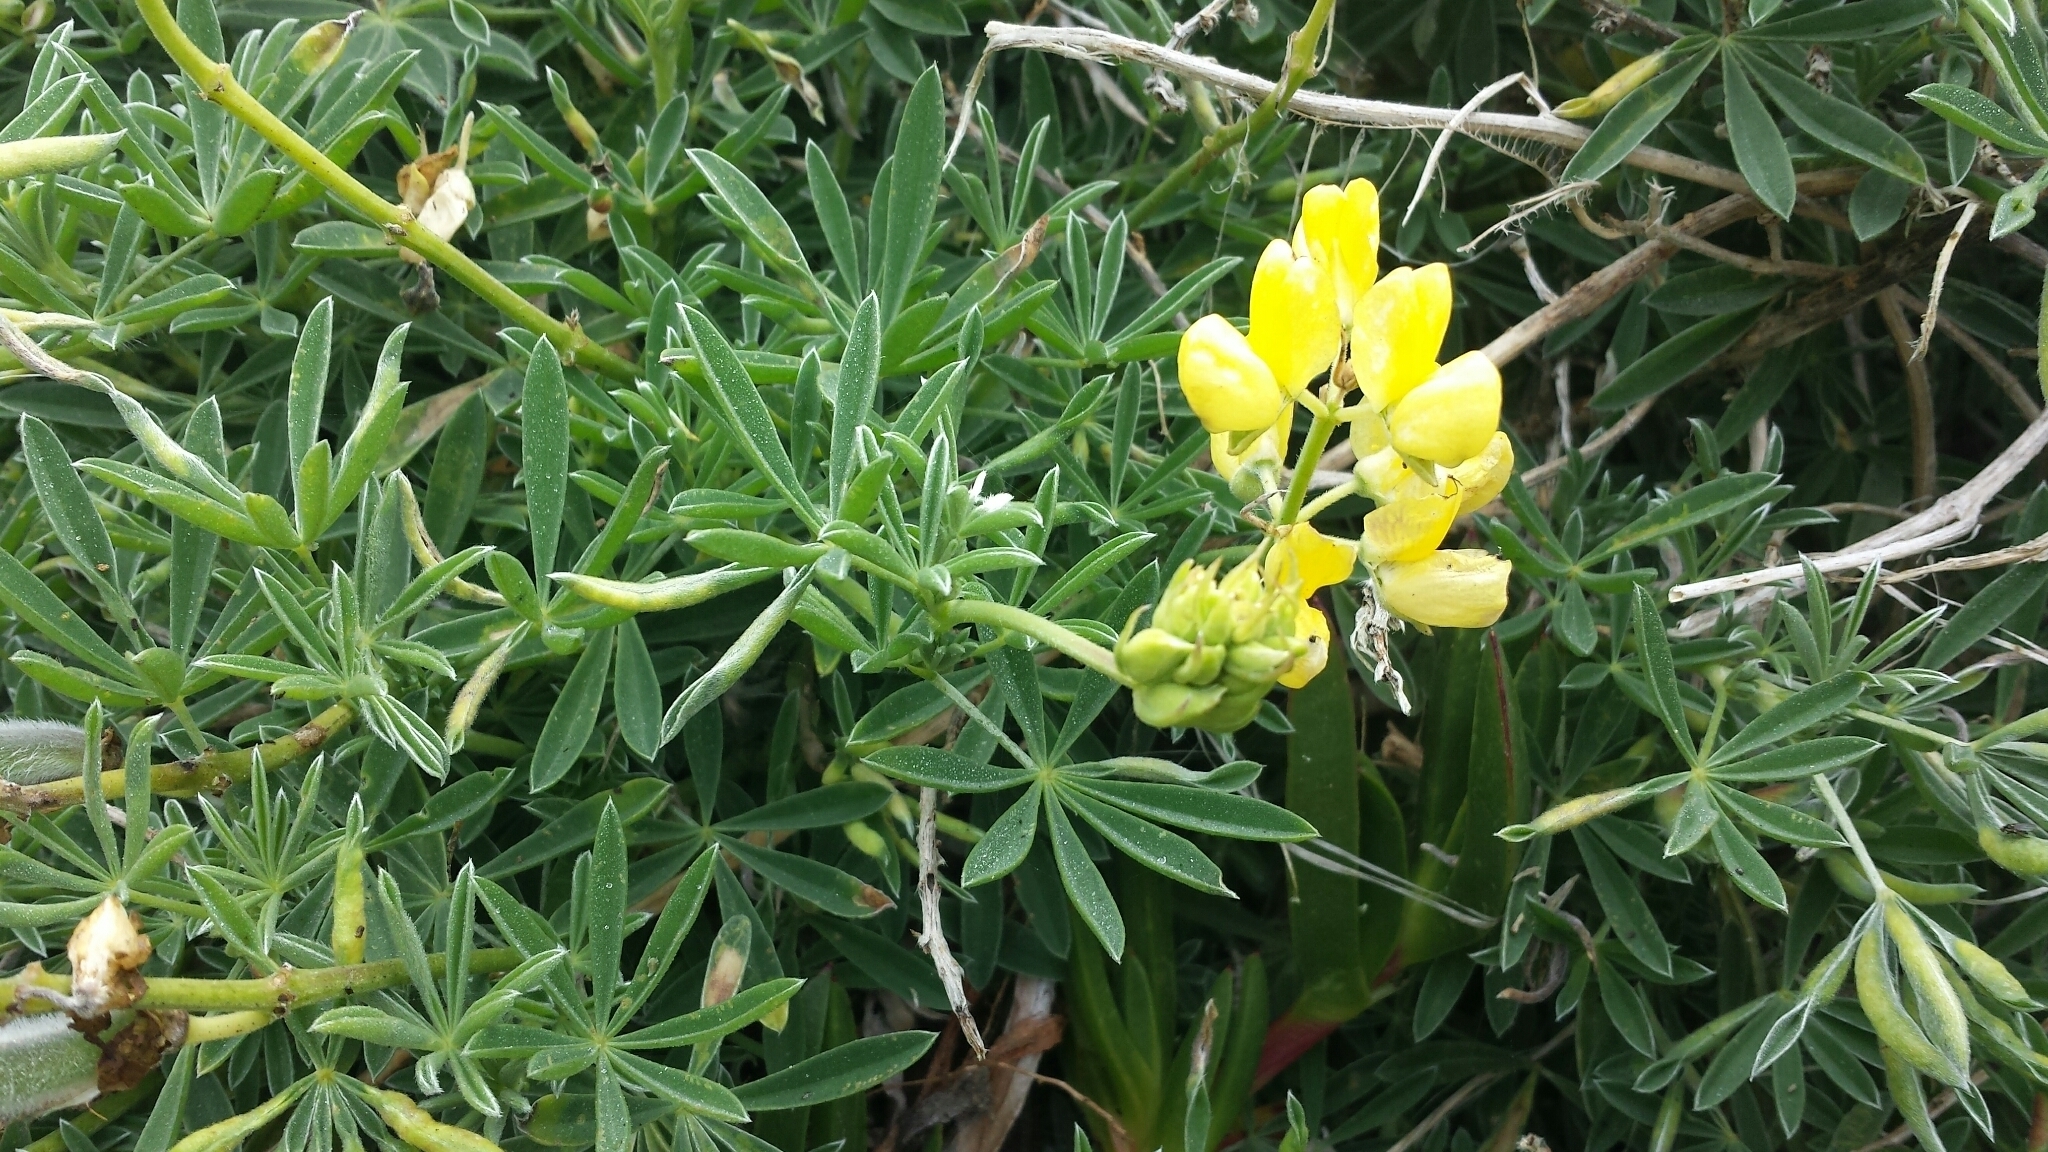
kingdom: Plantae
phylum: Tracheophyta
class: Magnoliopsida
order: Fabales
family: Fabaceae
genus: Lupinus
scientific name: Lupinus arboreus
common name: Yellow bush lupine
